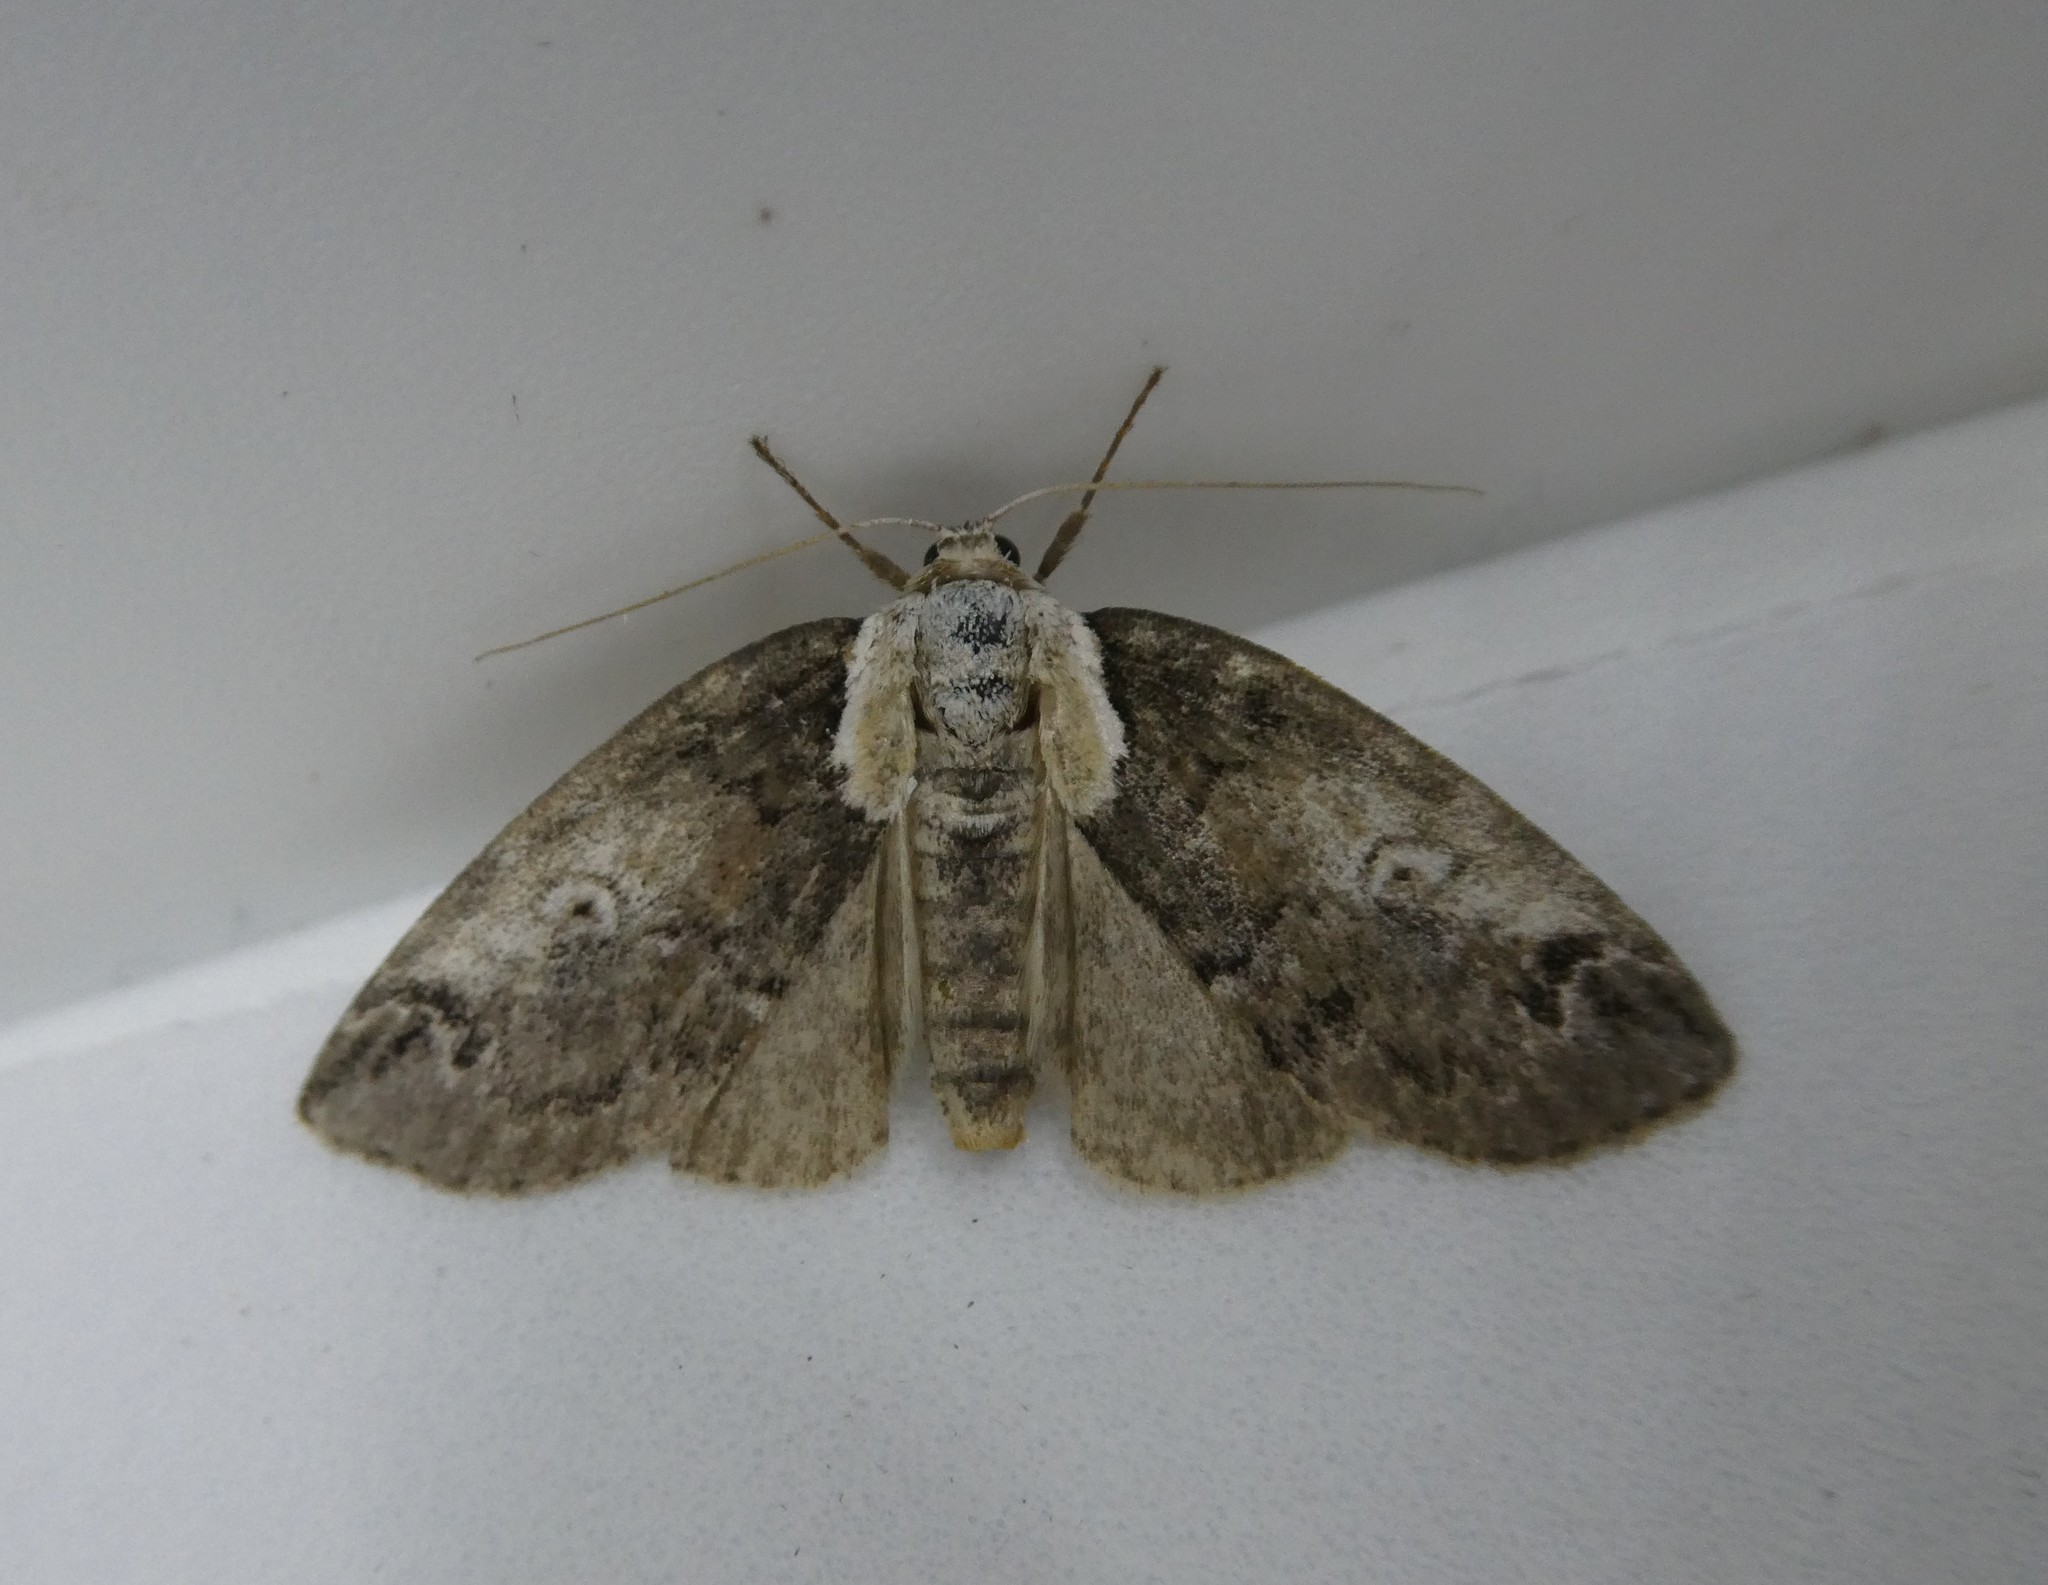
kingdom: Animalia
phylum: Arthropoda
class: Insecta
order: Lepidoptera
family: Nolidae
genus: Baileya
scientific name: Baileya ophthalmica
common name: Eyed baileya moth
